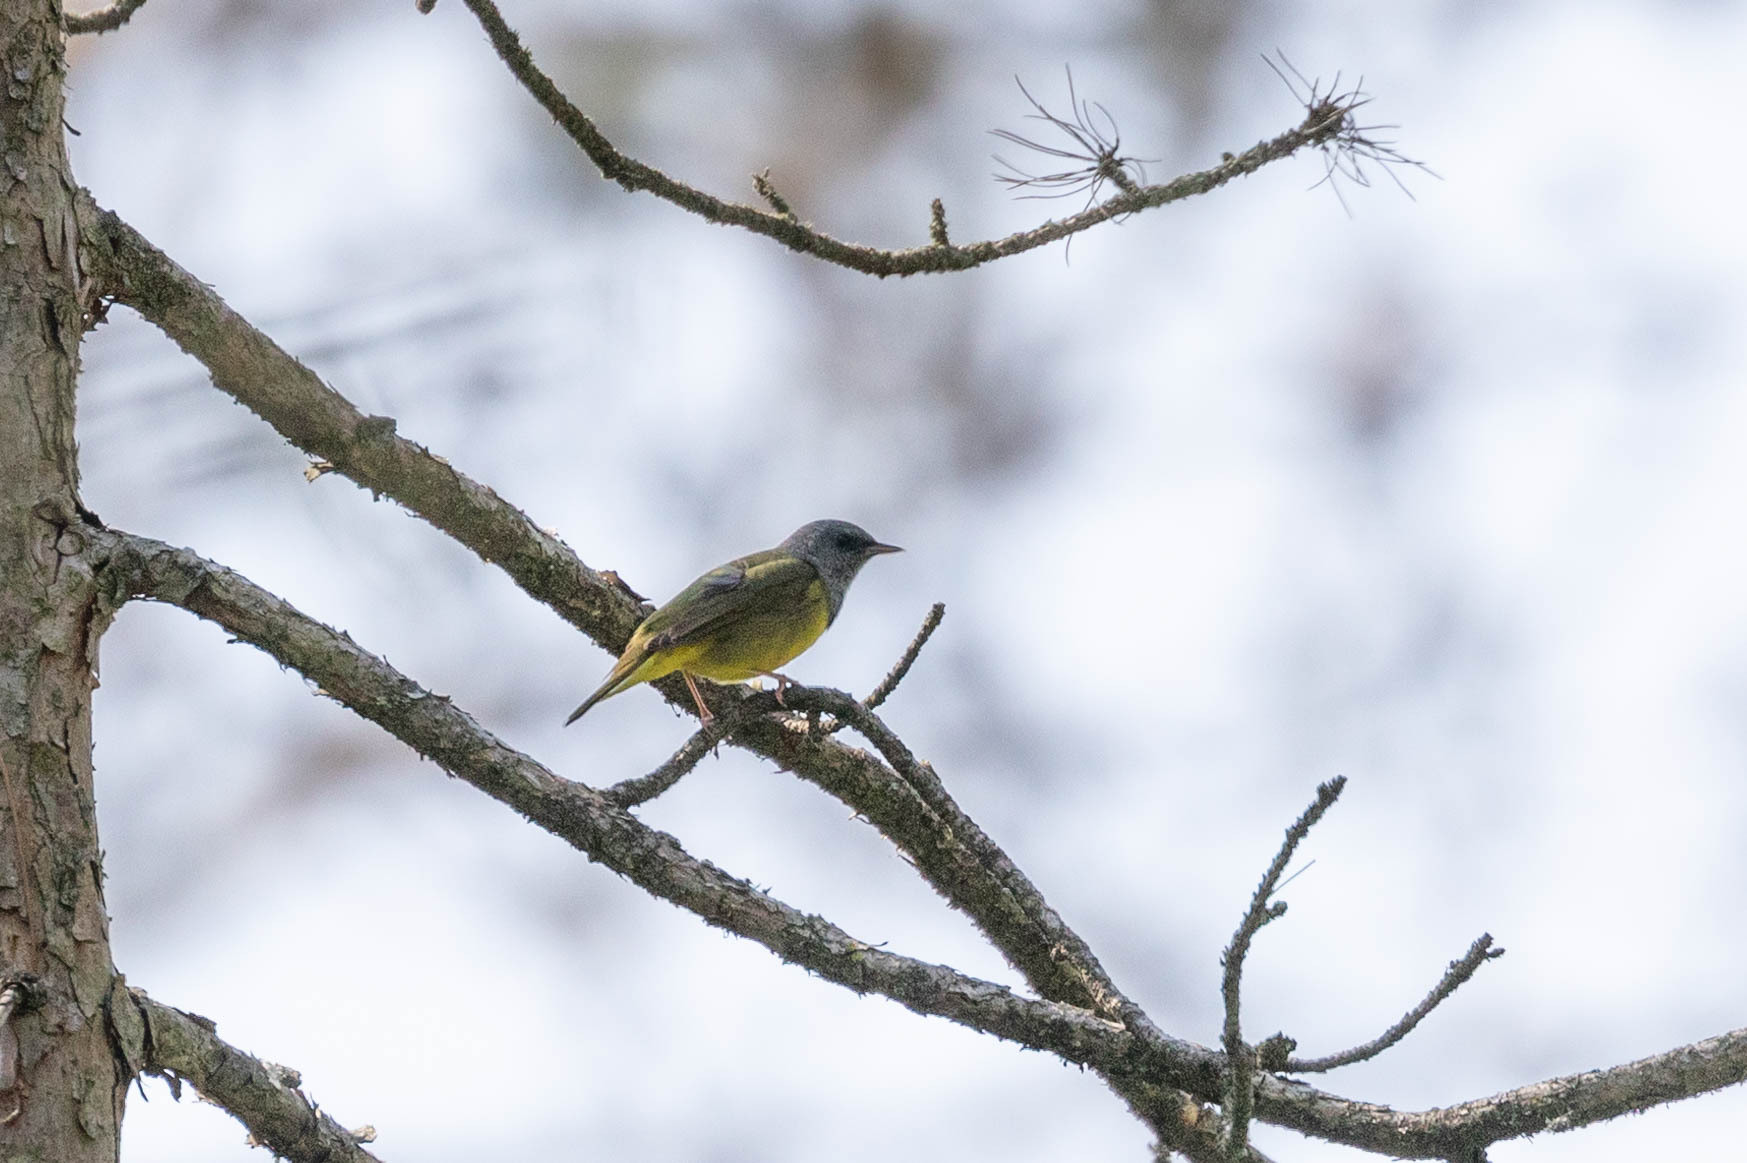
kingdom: Animalia
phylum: Chordata
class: Aves
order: Passeriformes
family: Parulidae
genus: Geothlypis
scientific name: Geothlypis philadelphia
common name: Mourning warbler
